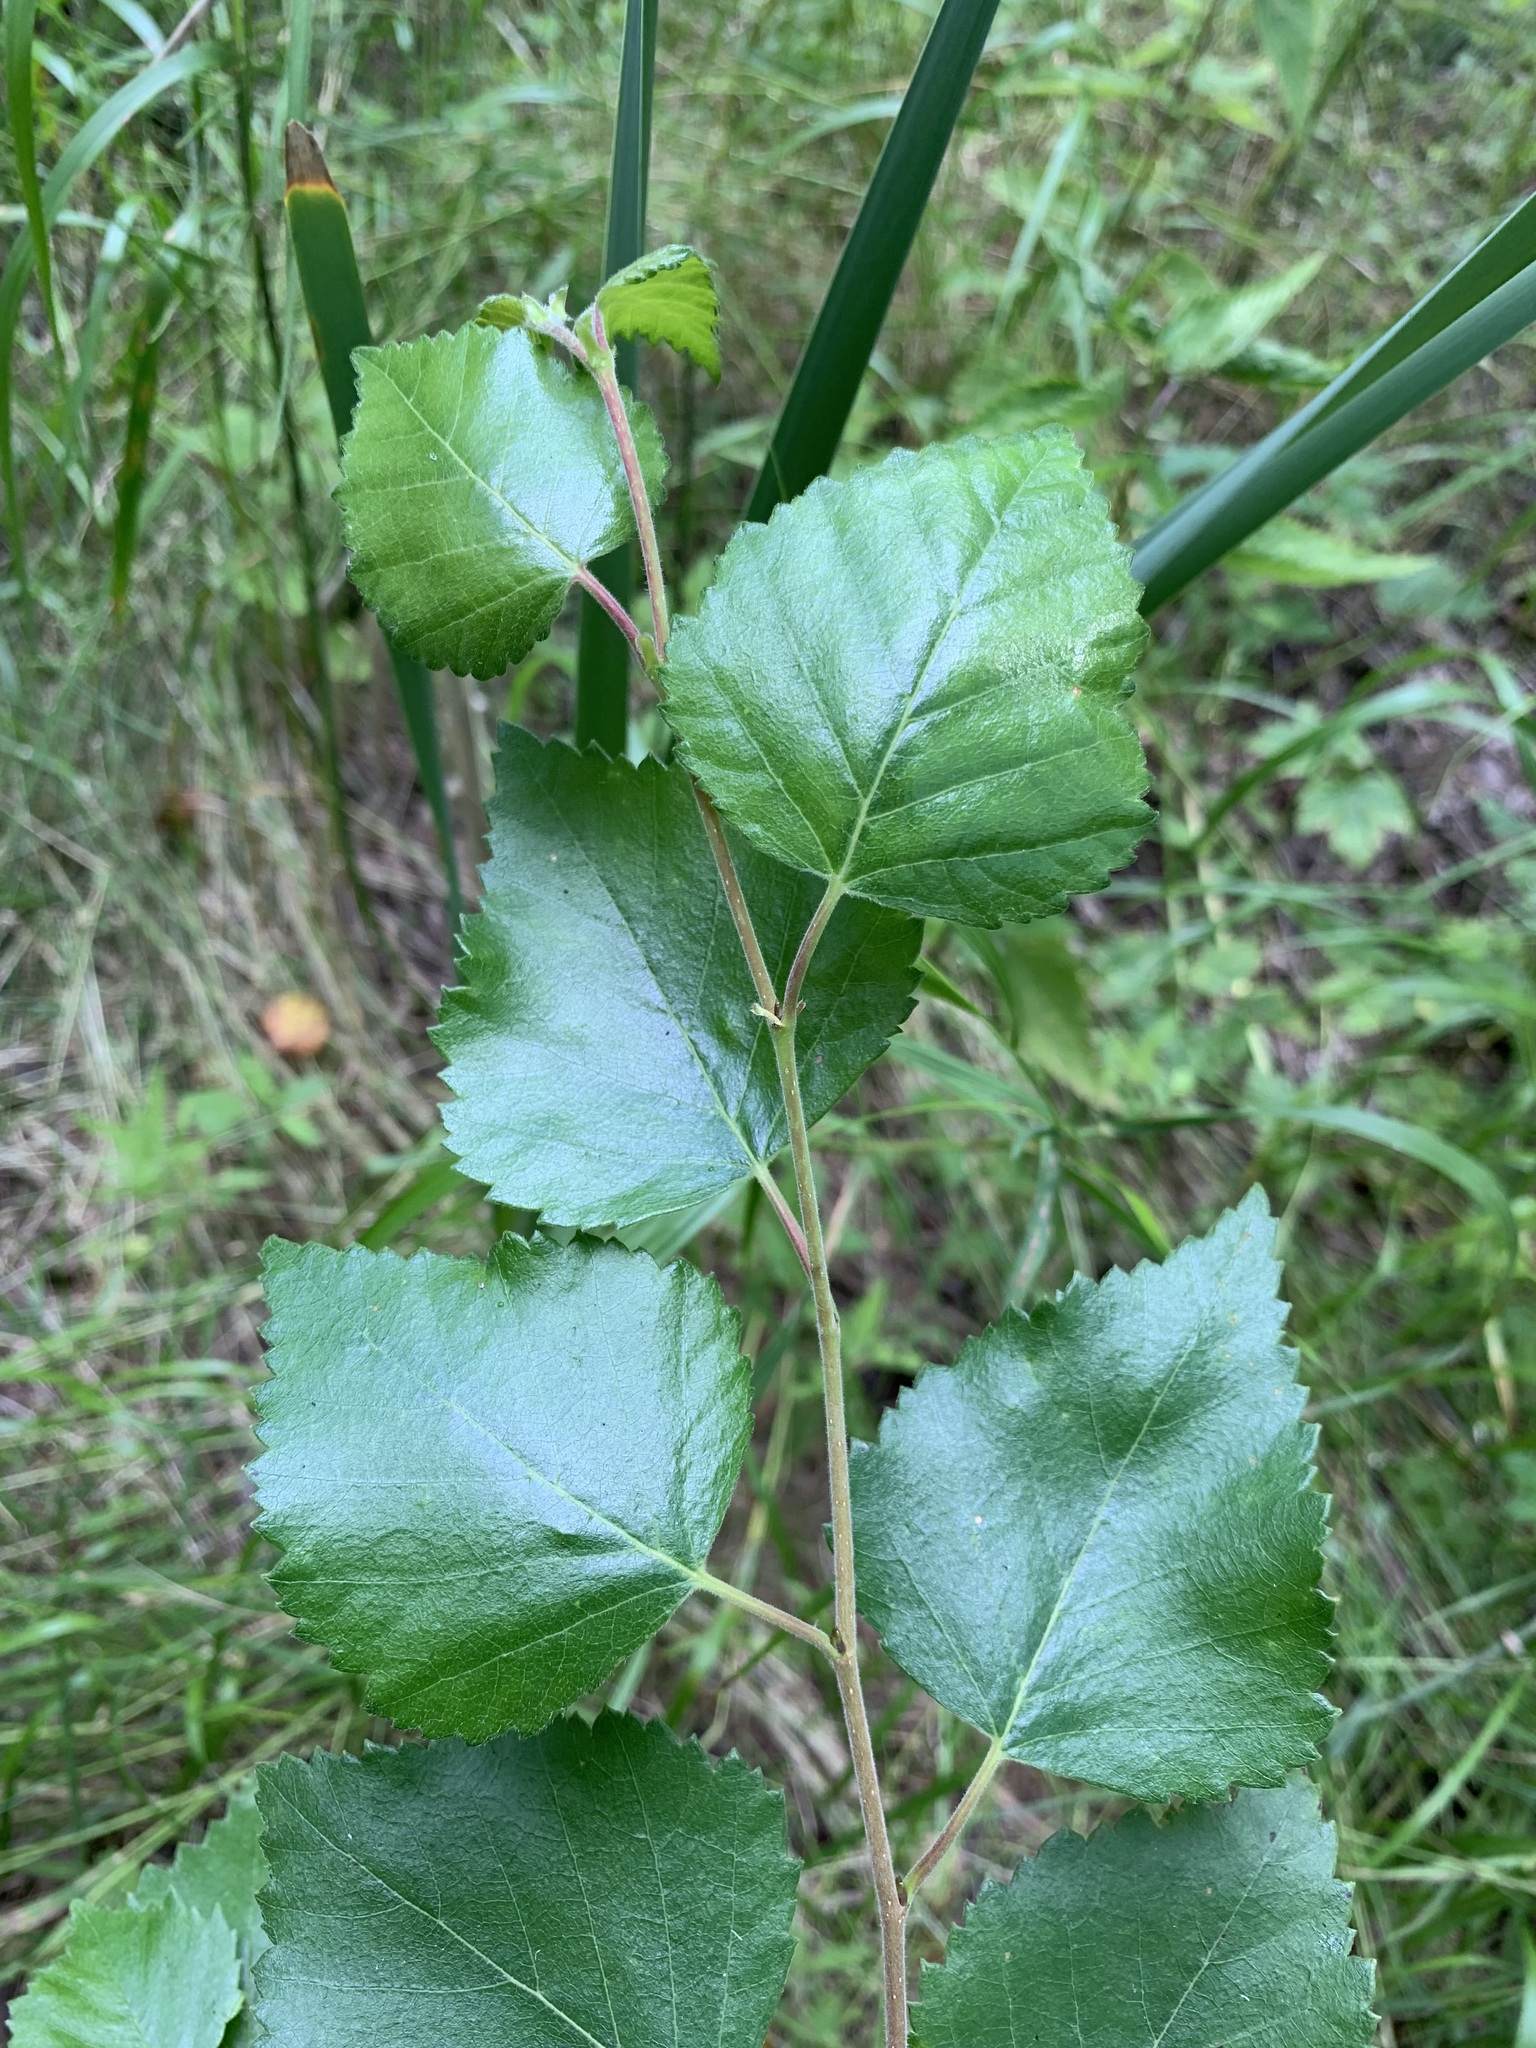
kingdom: Plantae
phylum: Tracheophyta
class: Magnoliopsida
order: Fagales
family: Betulaceae
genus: Betula
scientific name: Betula pubescens
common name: Downy birch
